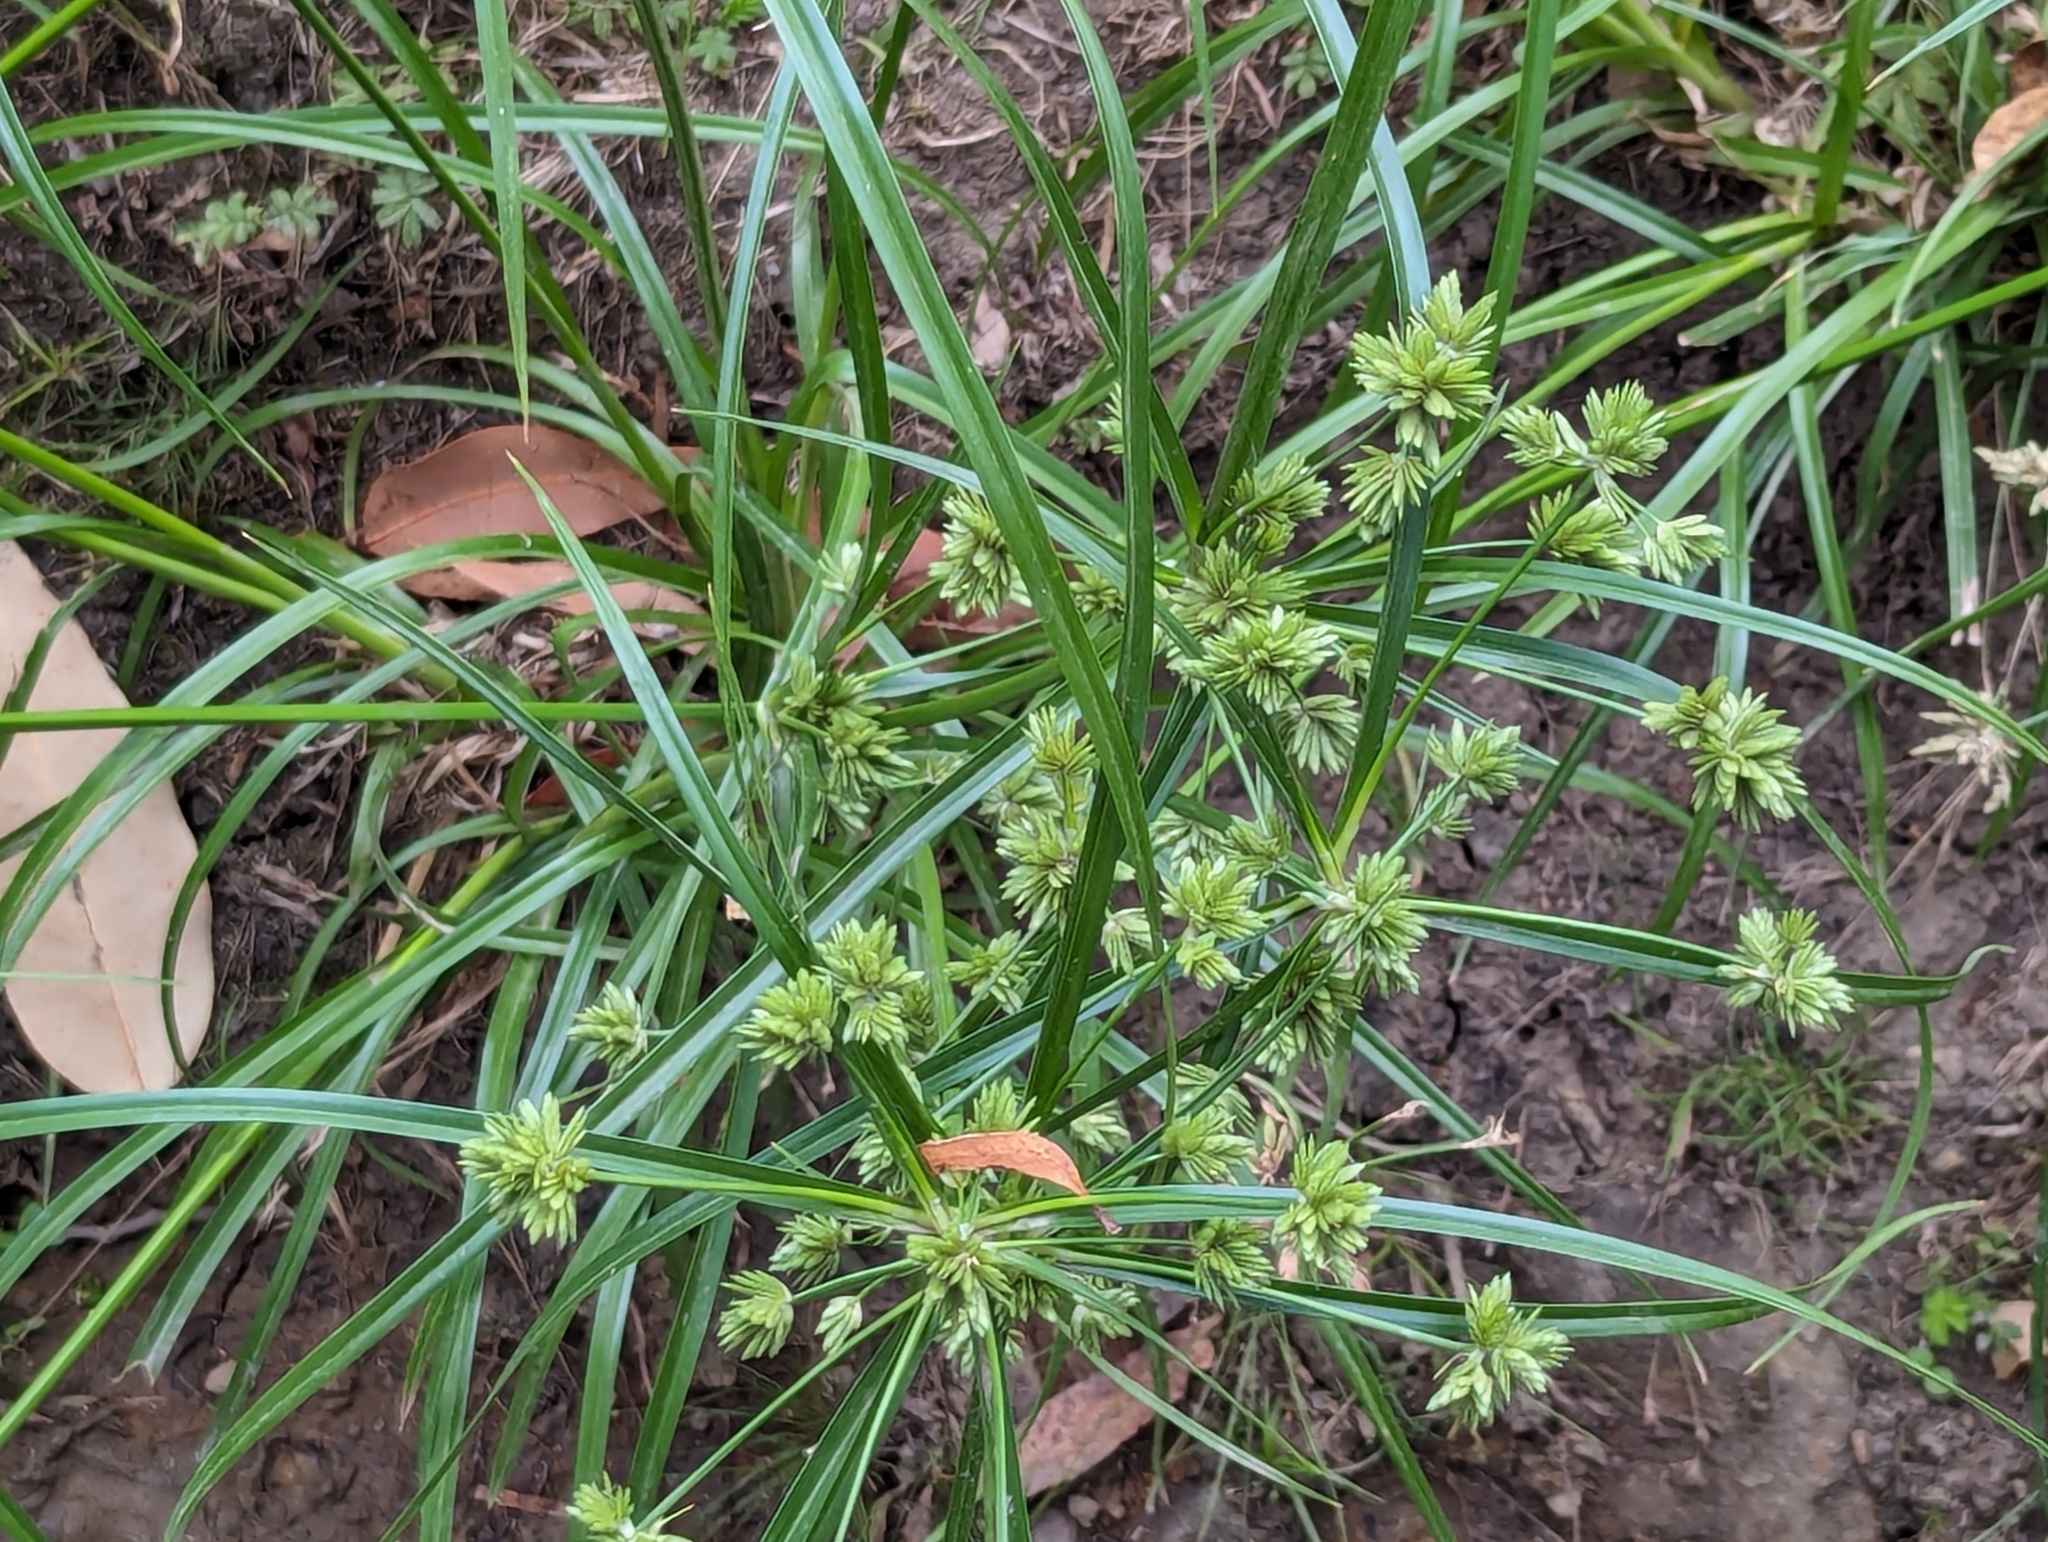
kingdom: Plantae
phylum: Tracheophyta
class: Liliopsida
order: Poales
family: Cyperaceae
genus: Cyperus
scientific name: Cyperus eragrostis
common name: Tall flatsedge
